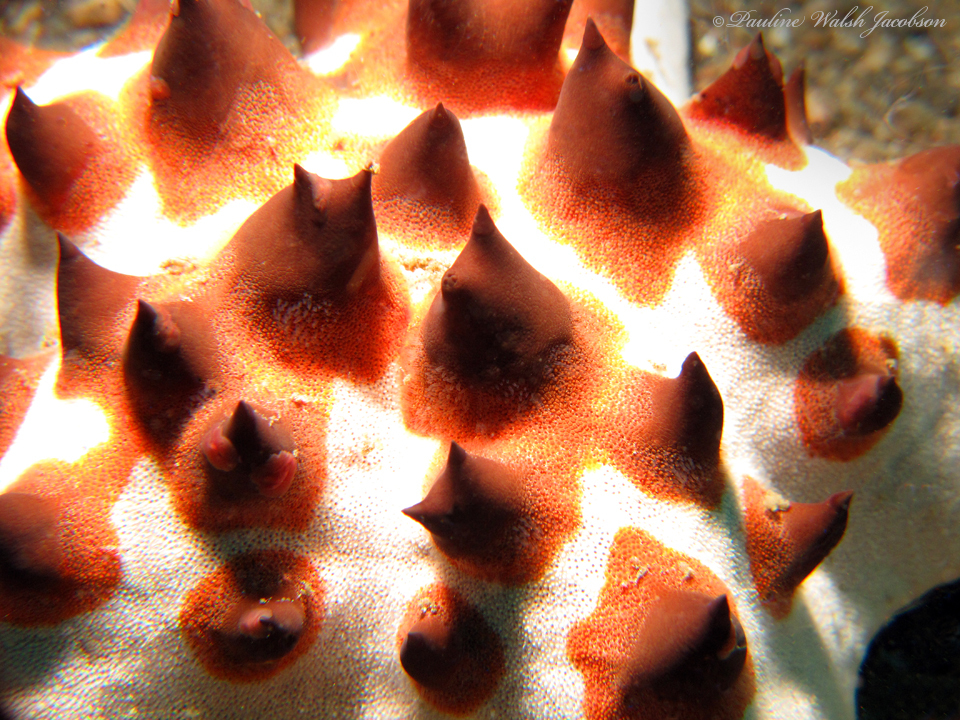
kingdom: Animalia
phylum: Echinodermata
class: Asteroidea
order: Valvatida
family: Oreasteridae
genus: Protoreaster
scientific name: Protoreaster nodosus
